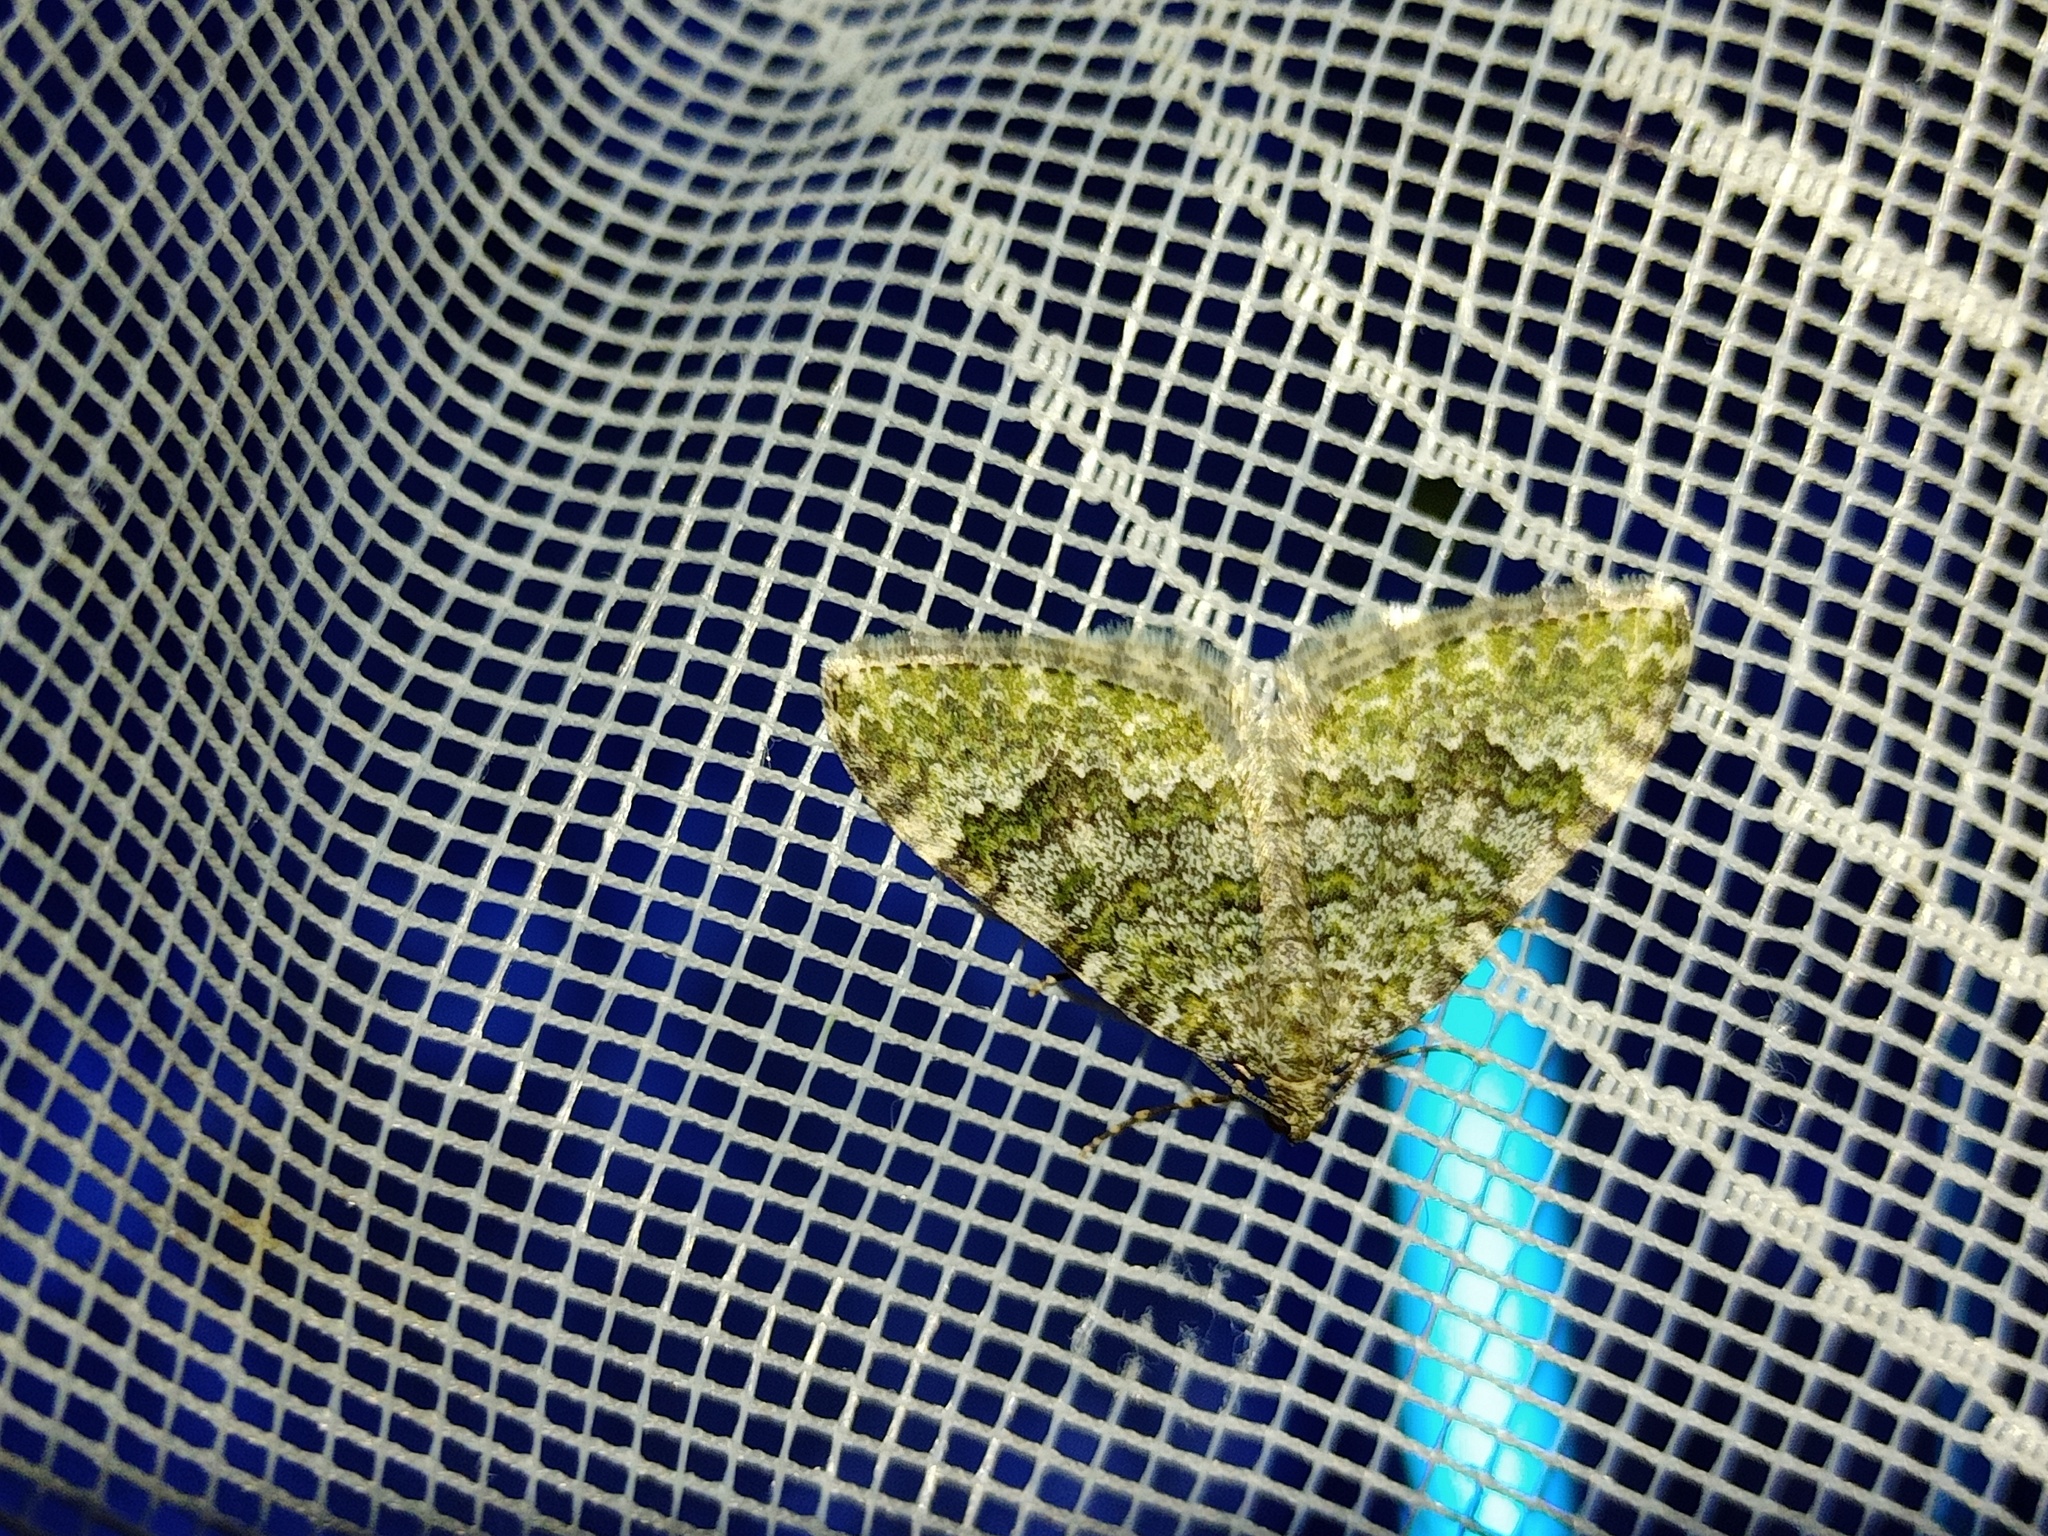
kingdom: Animalia
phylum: Arthropoda
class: Insecta
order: Lepidoptera
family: Geometridae
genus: Euphyia
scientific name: Euphyia frustata
